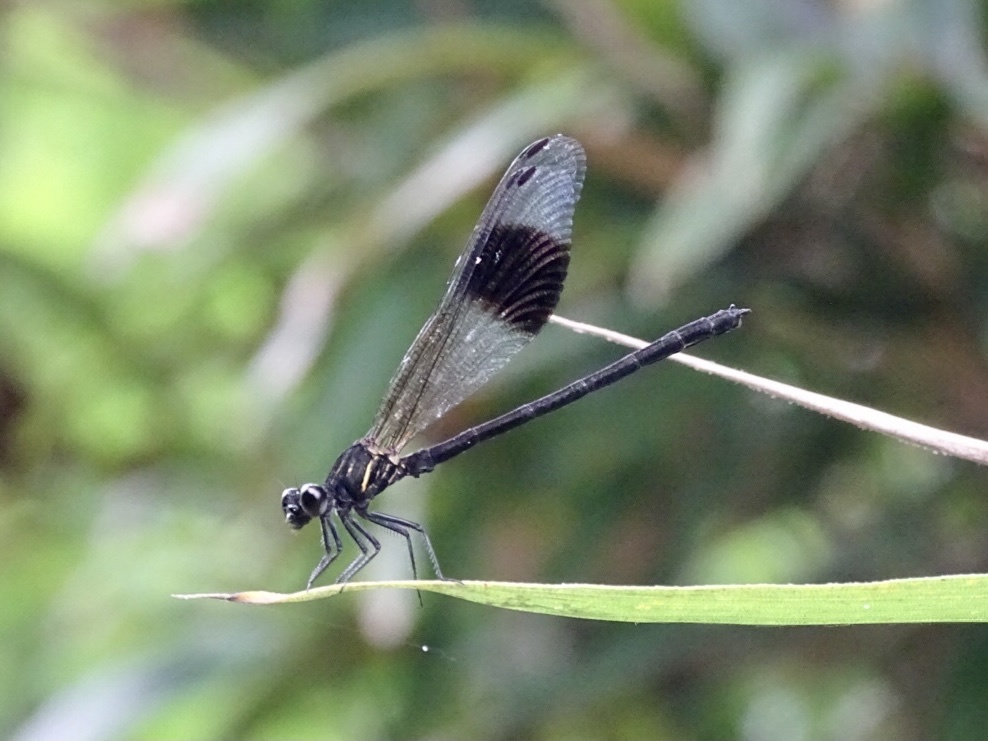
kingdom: Animalia
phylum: Arthropoda
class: Insecta
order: Odonata
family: Euphaeidae
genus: Euphaea
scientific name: Euphaea decorata
